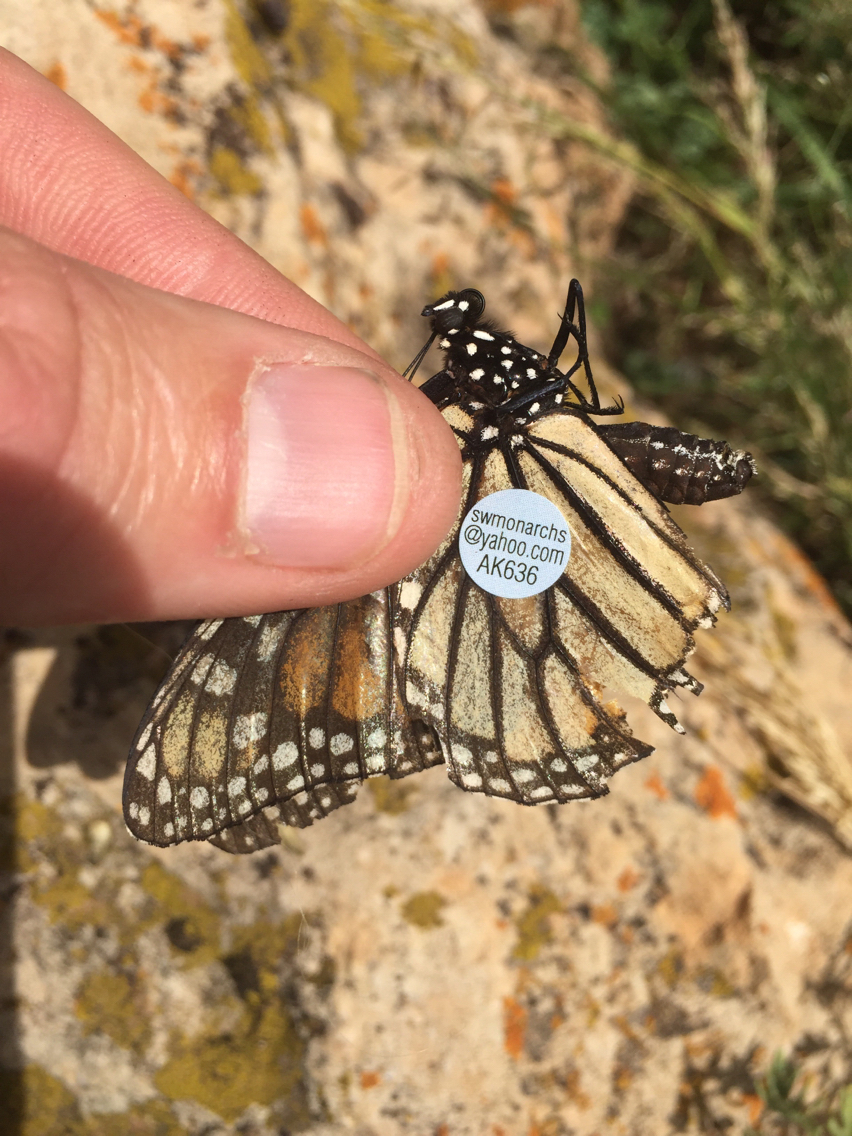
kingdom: Animalia
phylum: Arthropoda
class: Insecta
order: Lepidoptera
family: Nymphalidae
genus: Danaus
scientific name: Danaus plexippus
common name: Monarch
